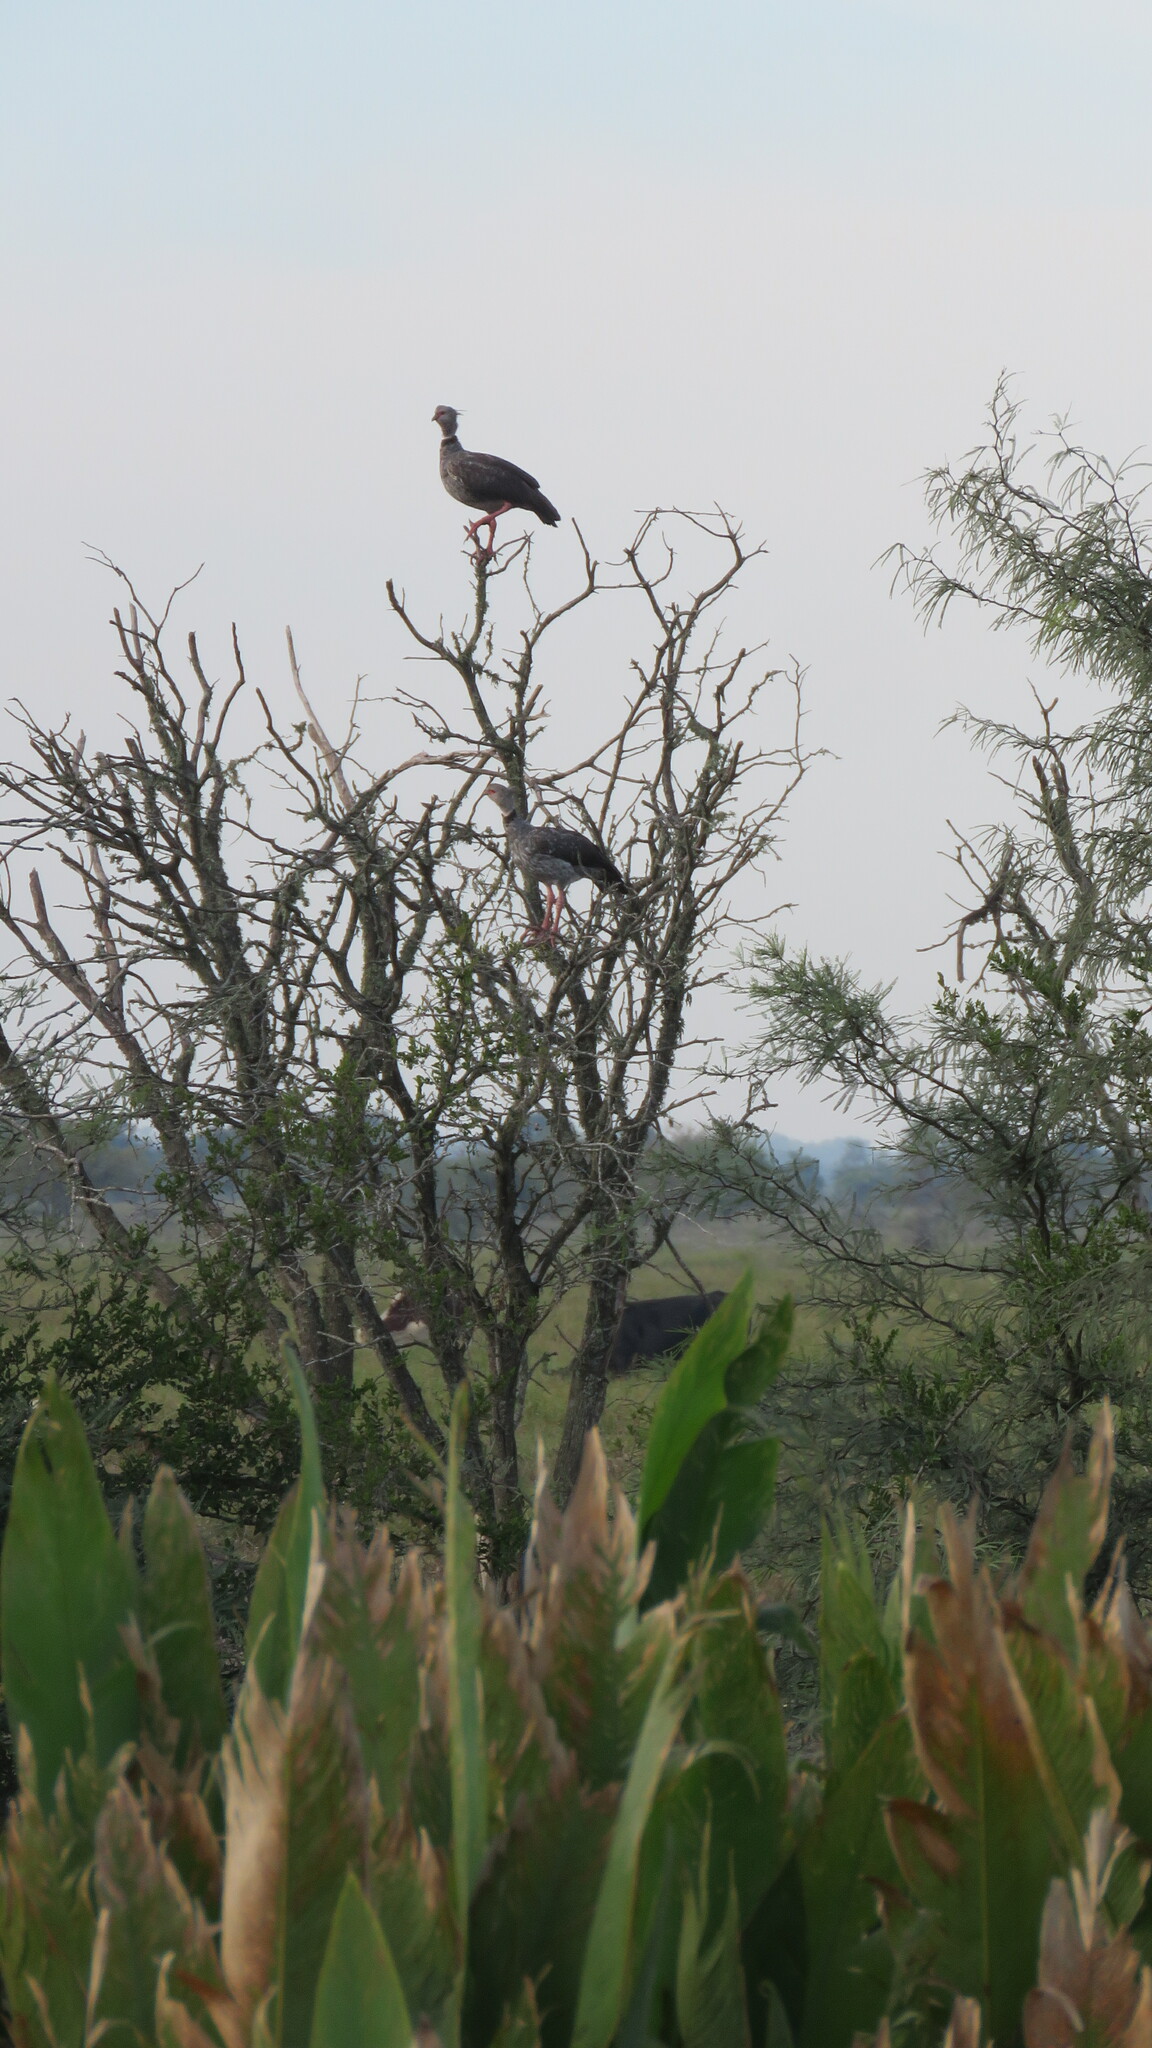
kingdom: Animalia
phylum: Chordata
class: Aves
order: Anseriformes
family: Anhimidae
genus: Chauna
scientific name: Chauna torquata
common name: Southern screamer
